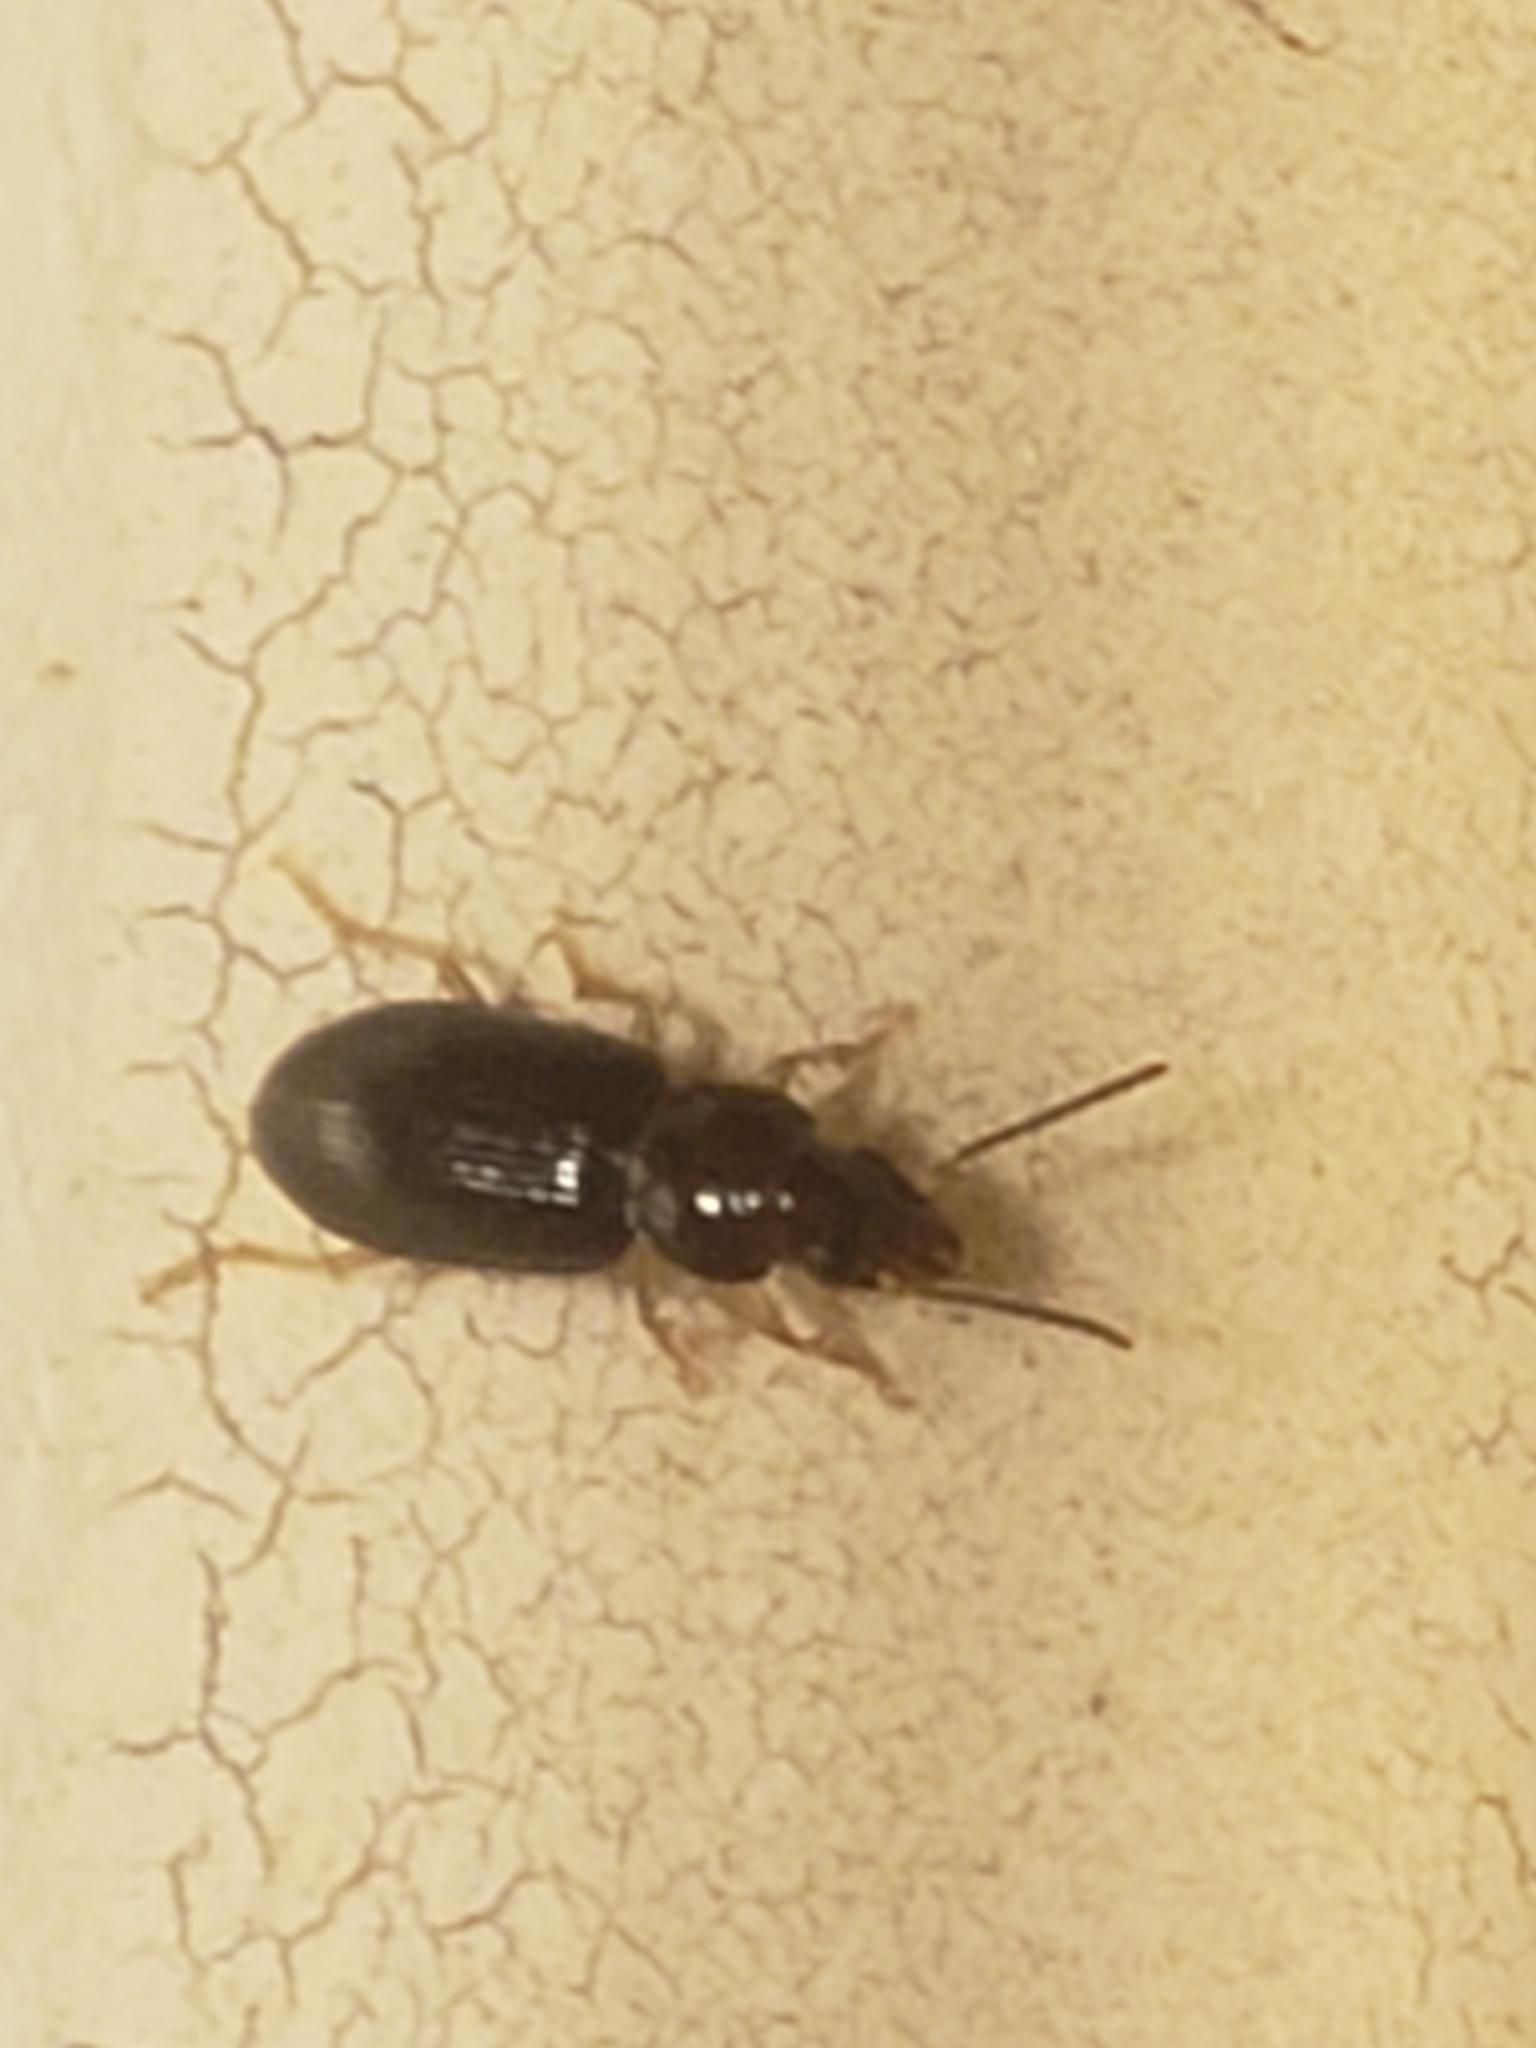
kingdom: Animalia
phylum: Arthropoda
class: Insecta
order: Coleoptera
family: Carabidae
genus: Stenolophus
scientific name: Stenolophus ochropezus
